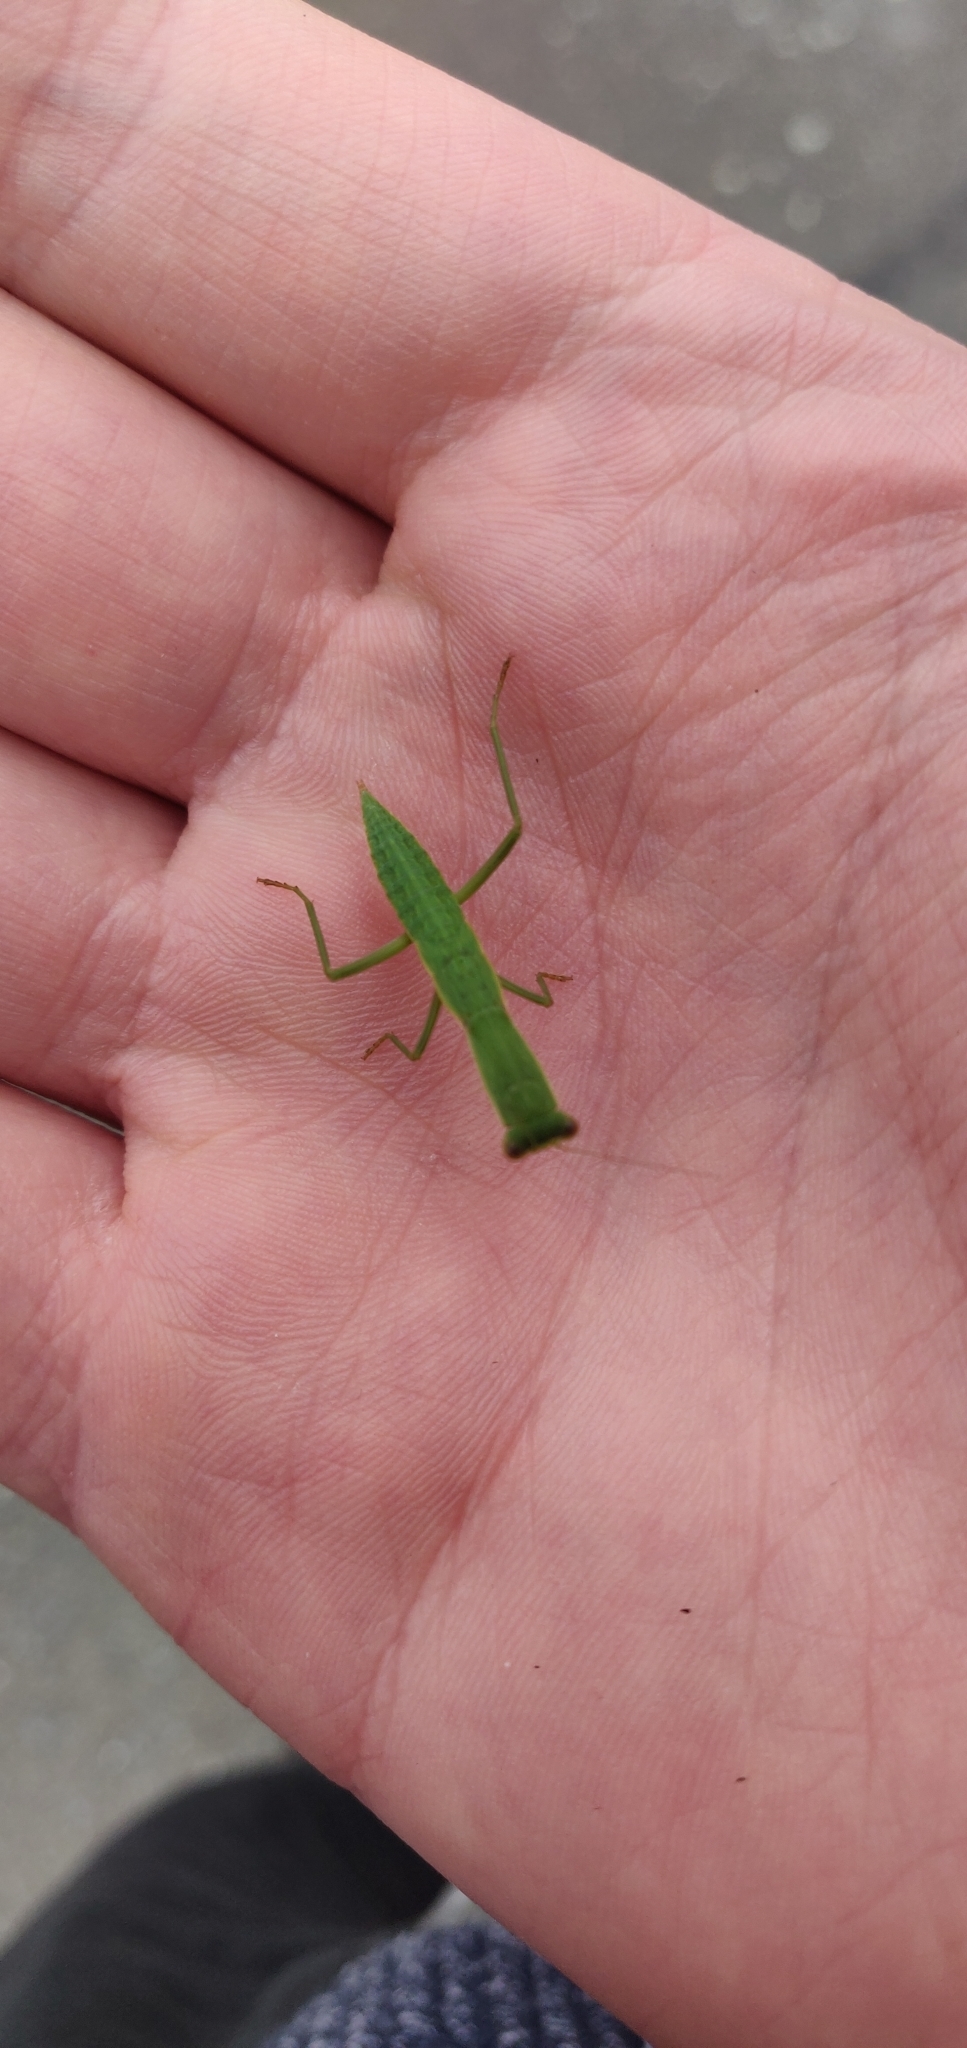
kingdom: Animalia
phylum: Arthropoda
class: Insecta
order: Mantodea
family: Mantidae
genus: Orthodera
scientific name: Orthodera novaezealandiae
